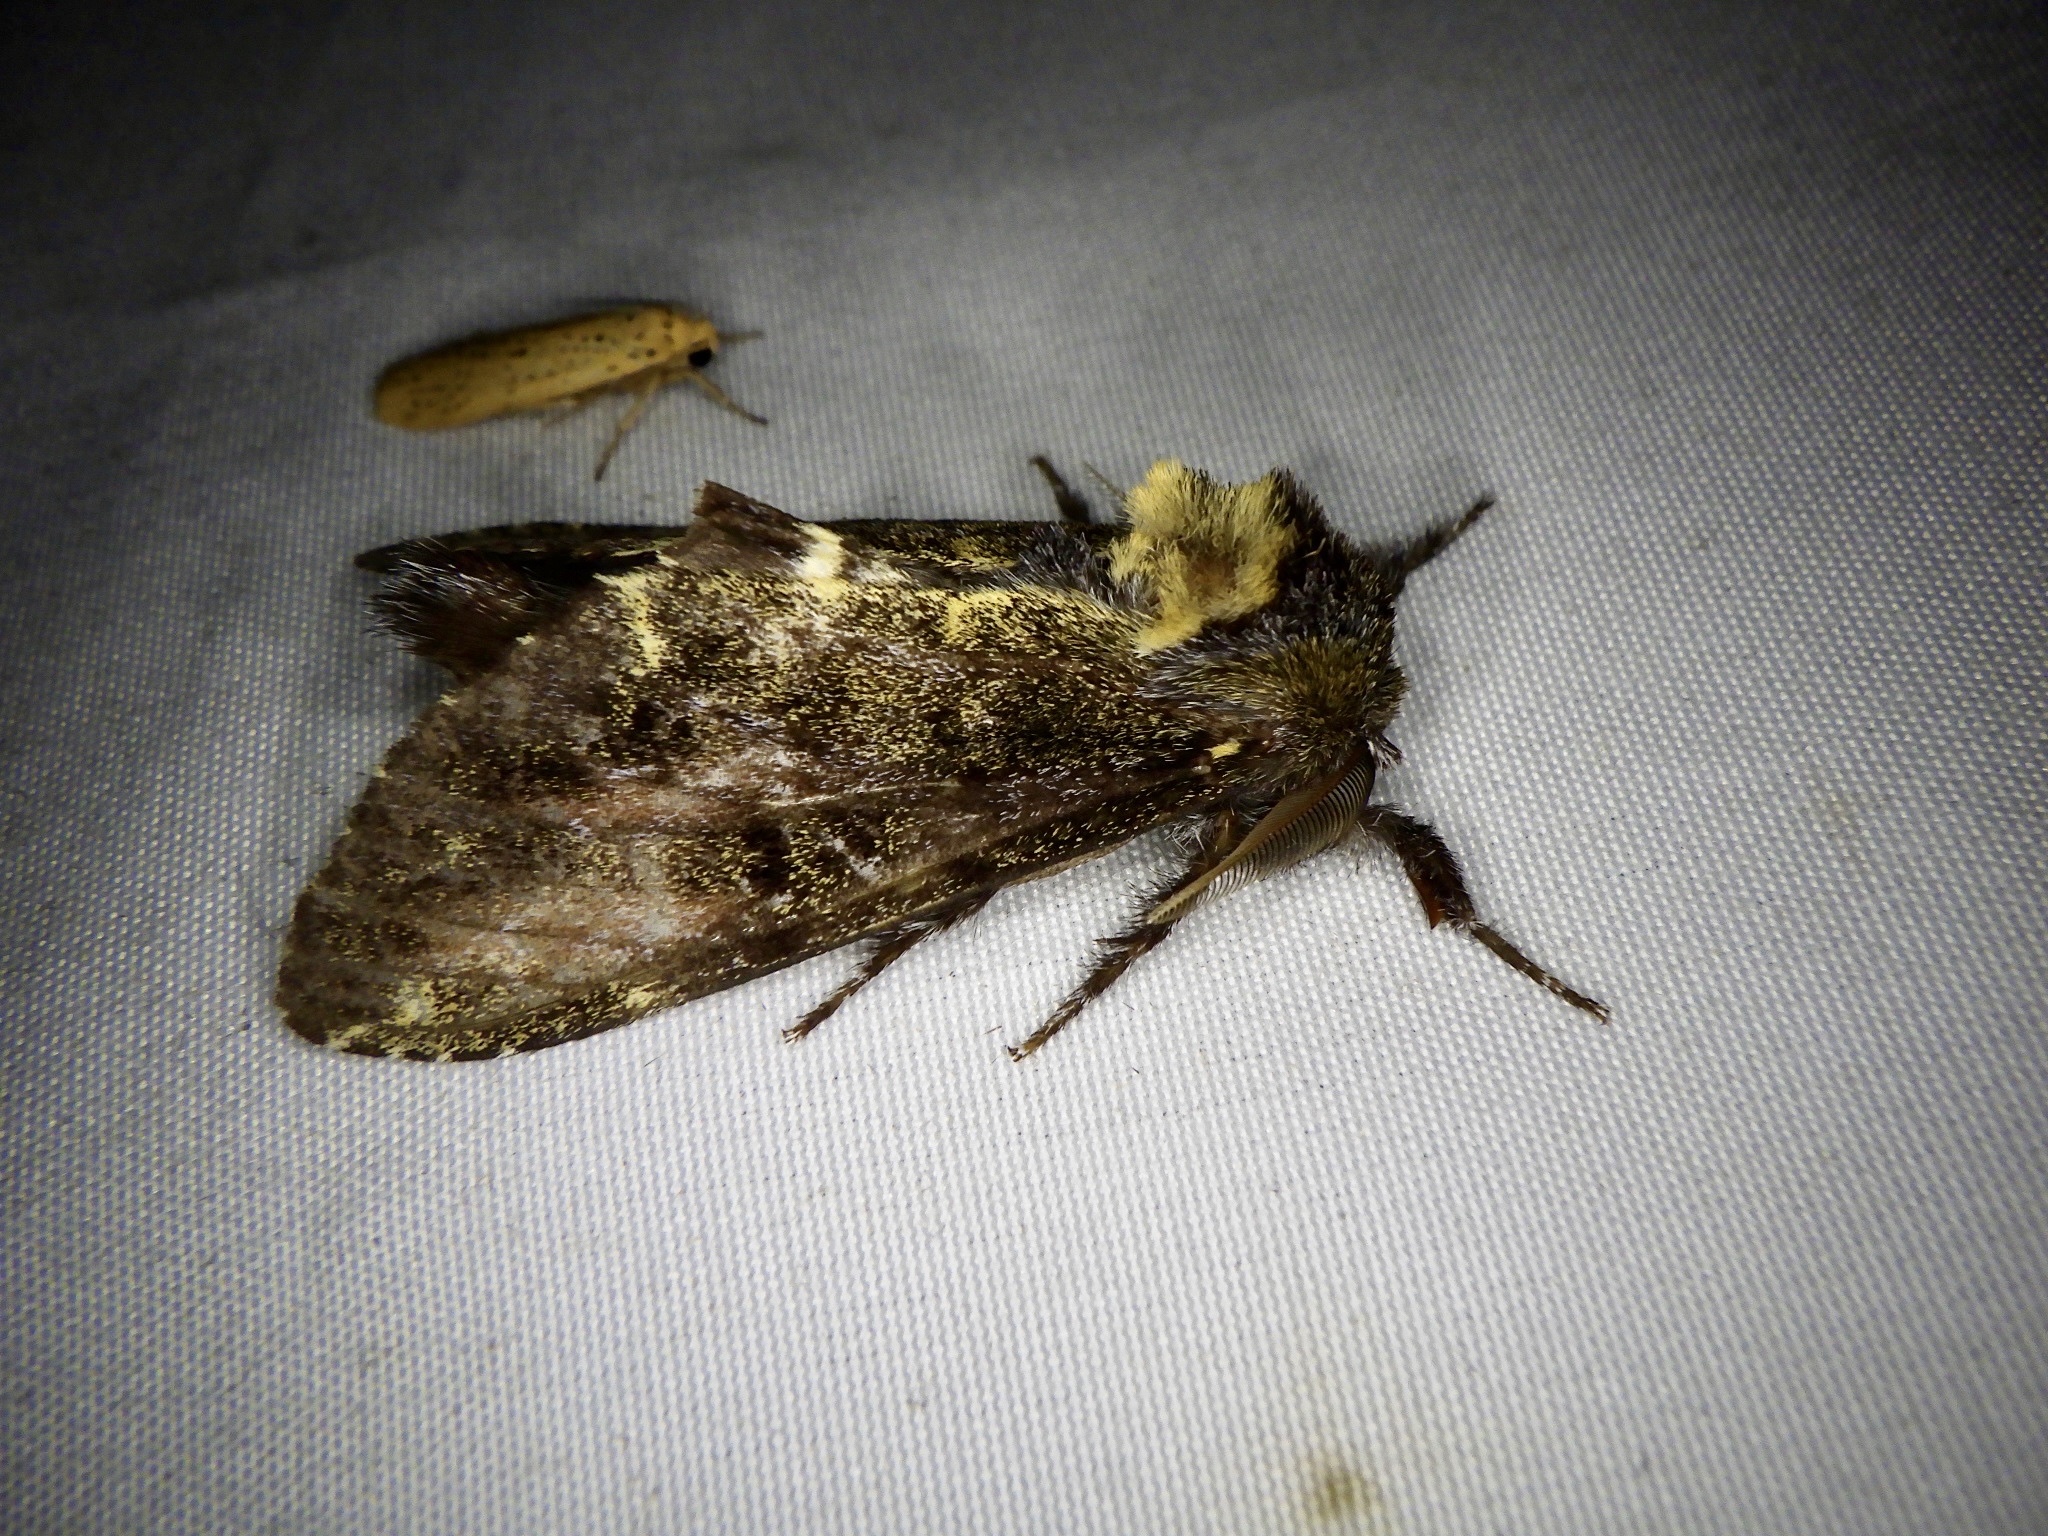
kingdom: Animalia
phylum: Arthropoda
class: Insecta
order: Lepidoptera
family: Notodontidae
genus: Zaranga
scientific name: Zaranga permagna
